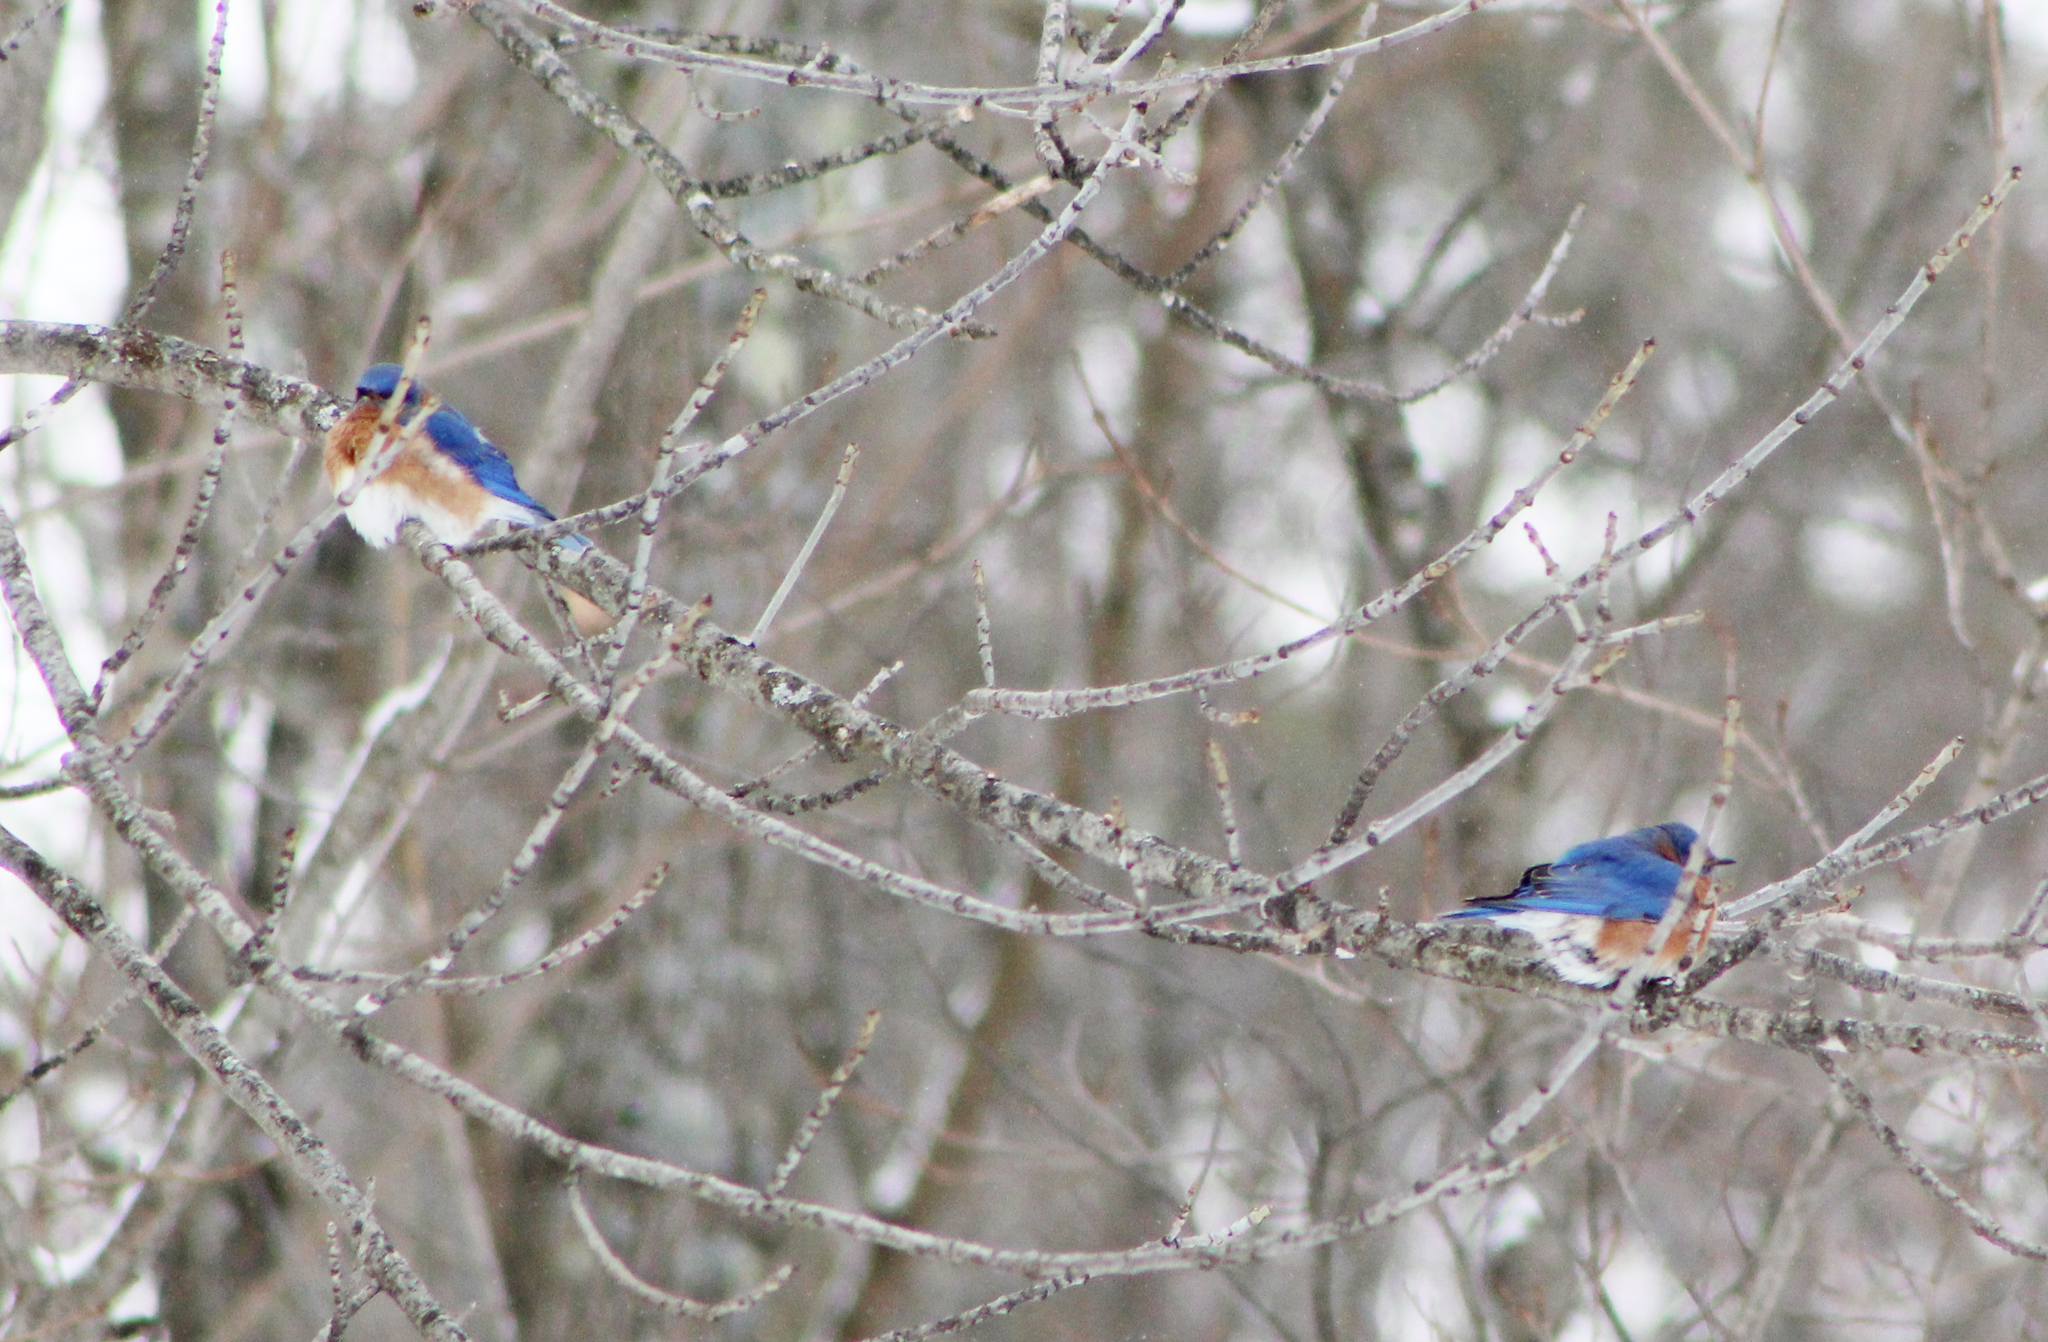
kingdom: Animalia
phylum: Chordata
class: Aves
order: Passeriformes
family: Turdidae
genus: Sialia
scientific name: Sialia sialis
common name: Eastern bluebird
